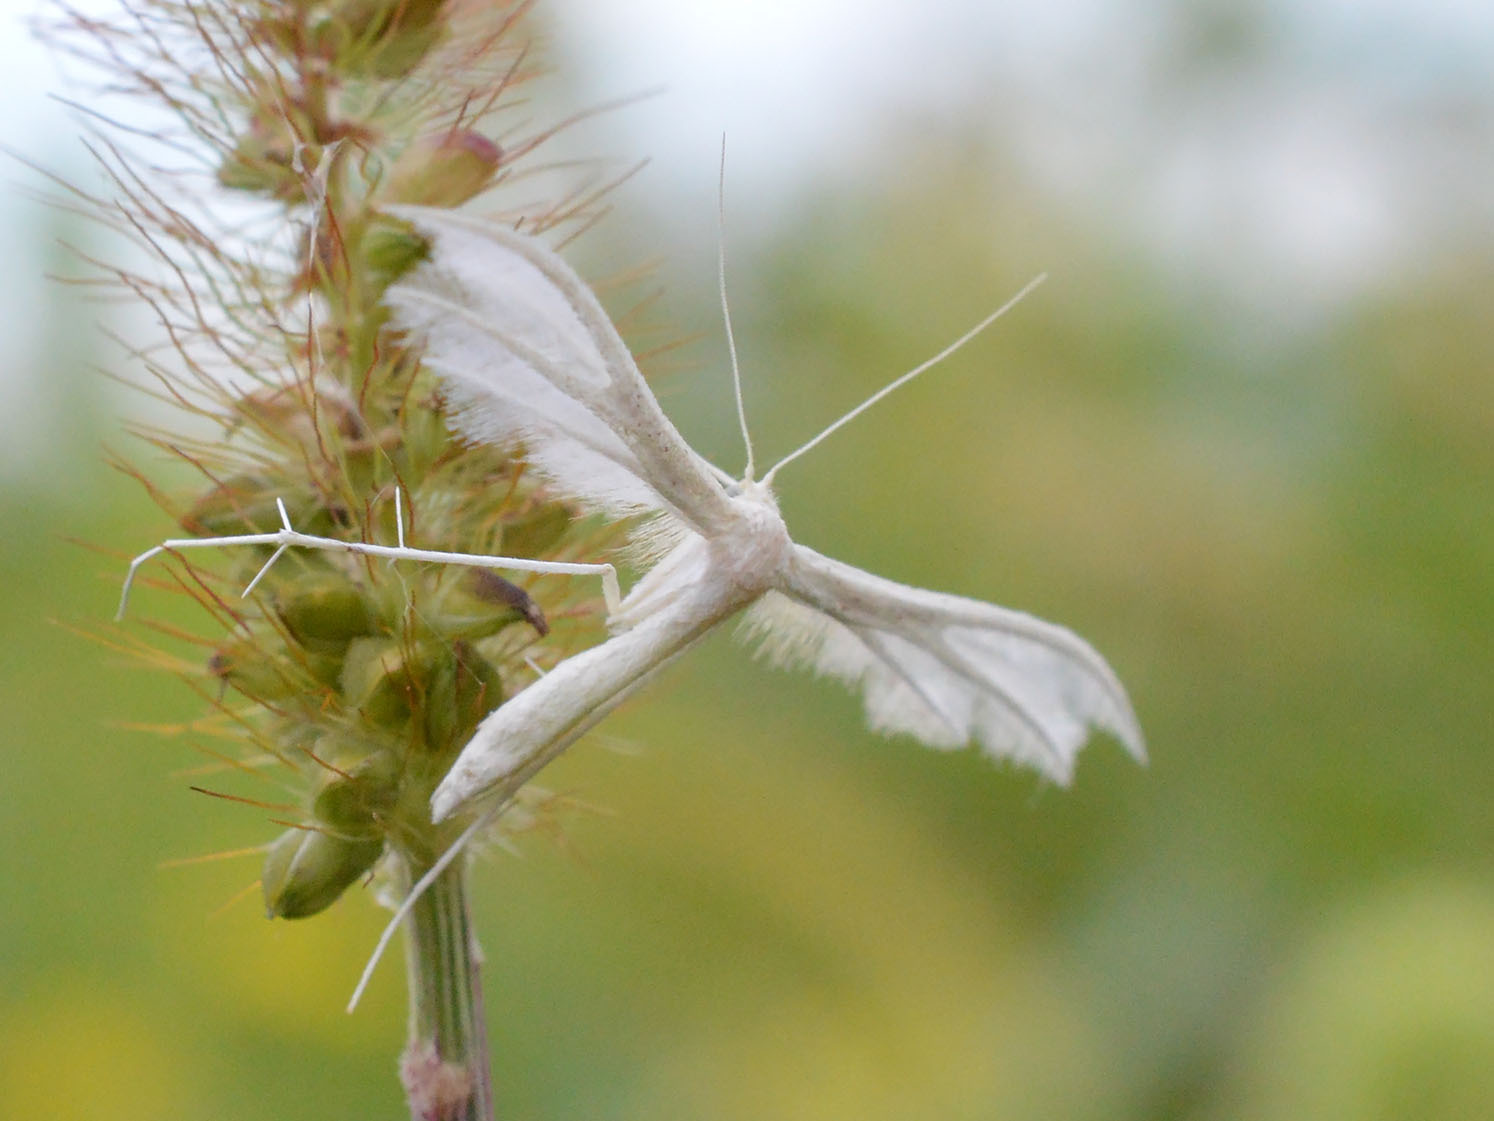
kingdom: Animalia
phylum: Arthropoda
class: Insecta
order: Lepidoptera
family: Pterophoridae
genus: Pterophorus
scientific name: Pterophorus pentadactyla
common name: White plume moth
